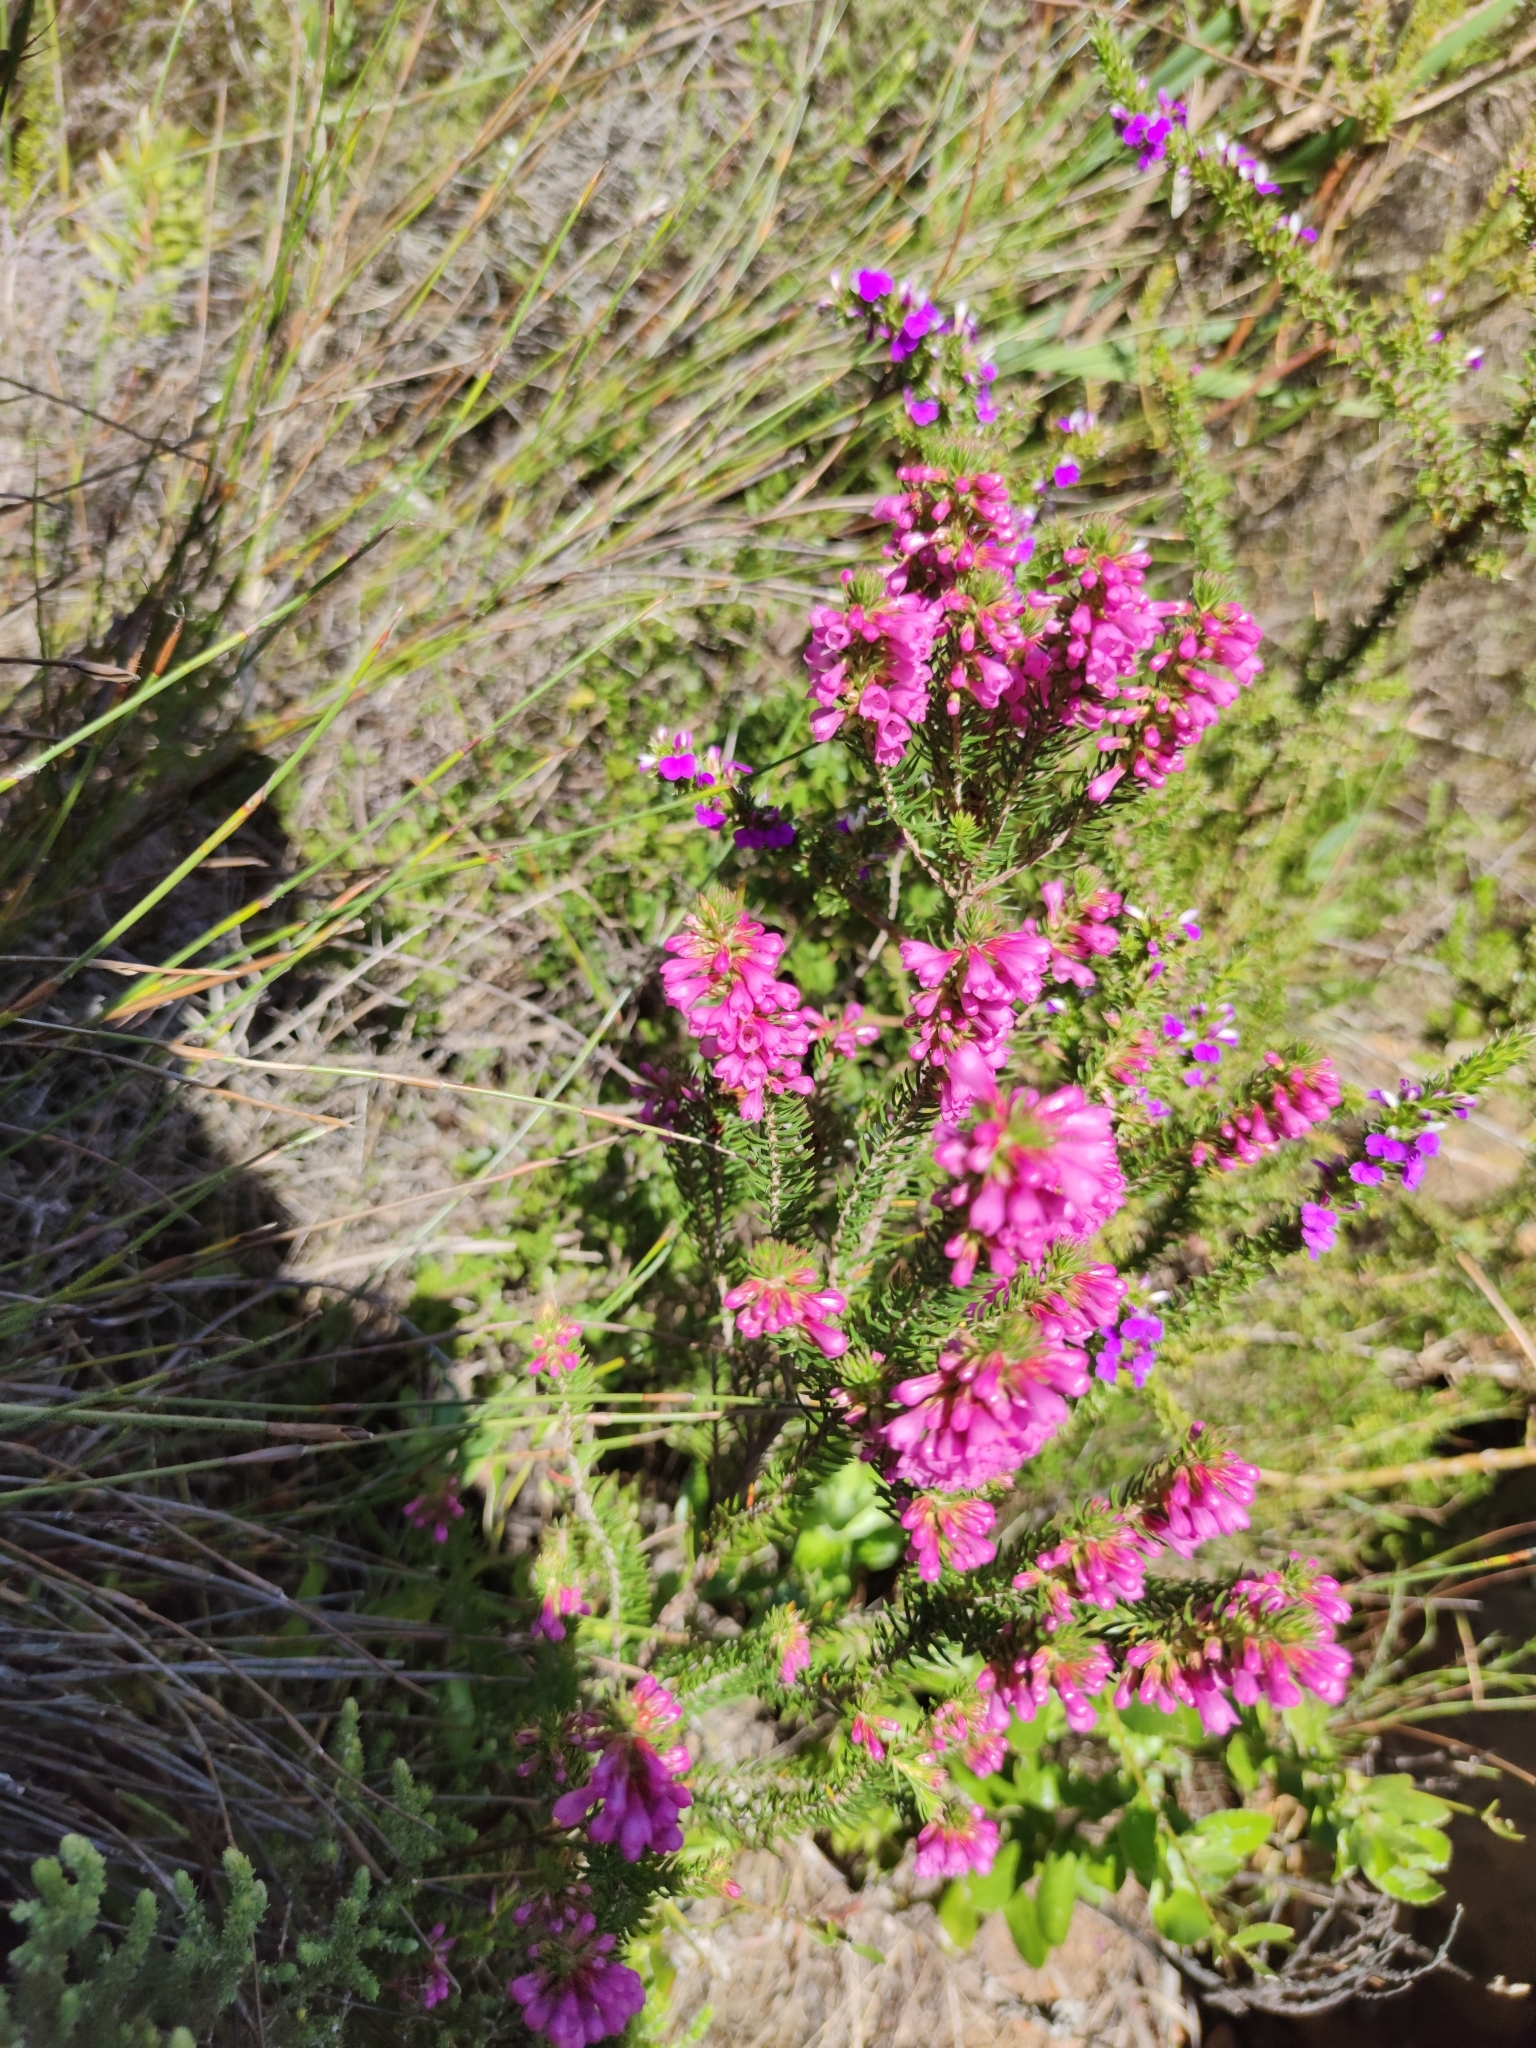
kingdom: Plantae
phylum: Tracheophyta
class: Magnoliopsida
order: Ericales
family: Ericaceae
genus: Erica
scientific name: Erica abietina
